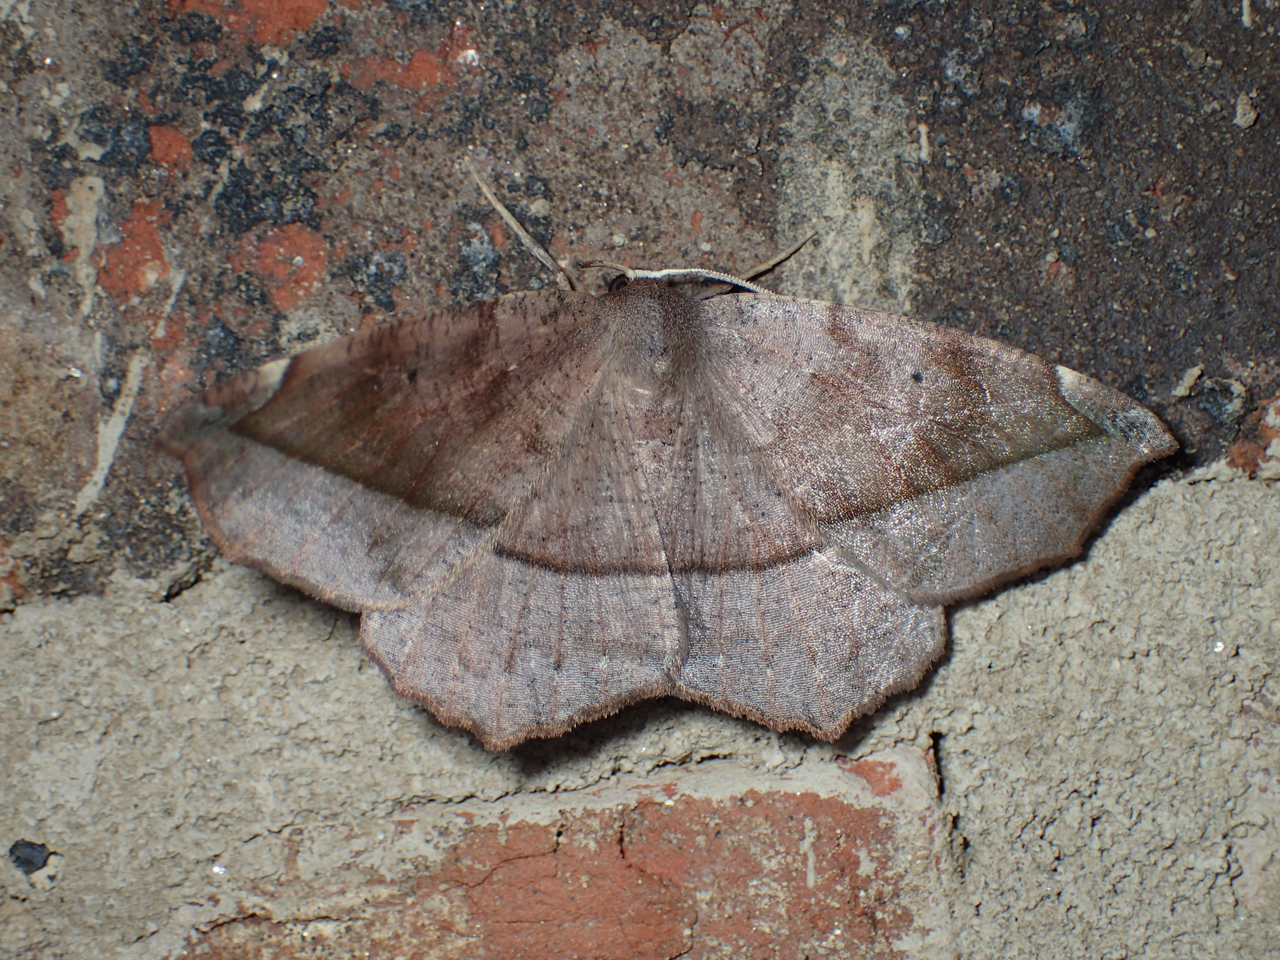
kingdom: Animalia
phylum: Arthropoda
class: Insecta
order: Lepidoptera
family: Geometridae
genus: Eutrapela
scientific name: Eutrapela clemataria
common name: Curved-toothed geometer
